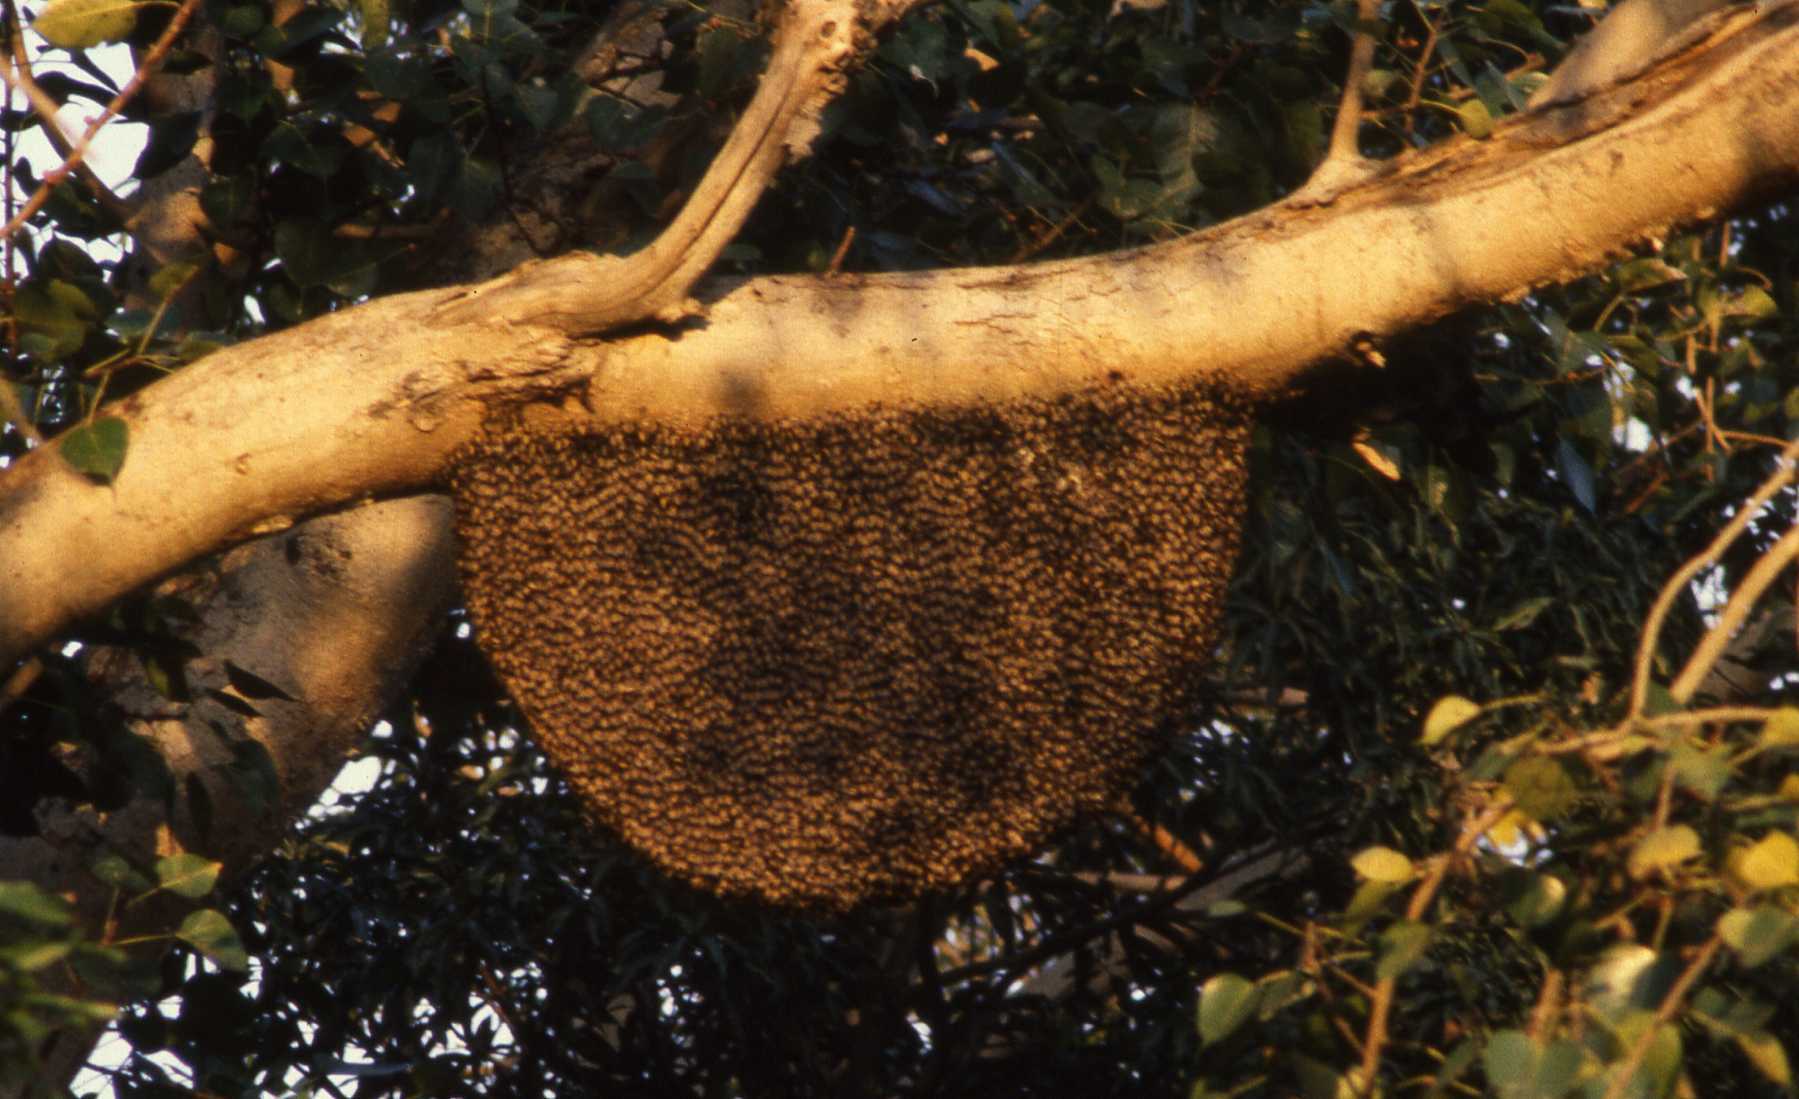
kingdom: Animalia
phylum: Arthropoda
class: Insecta
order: Hymenoptera
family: Apidae
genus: Apis
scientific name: Apis dorsata
